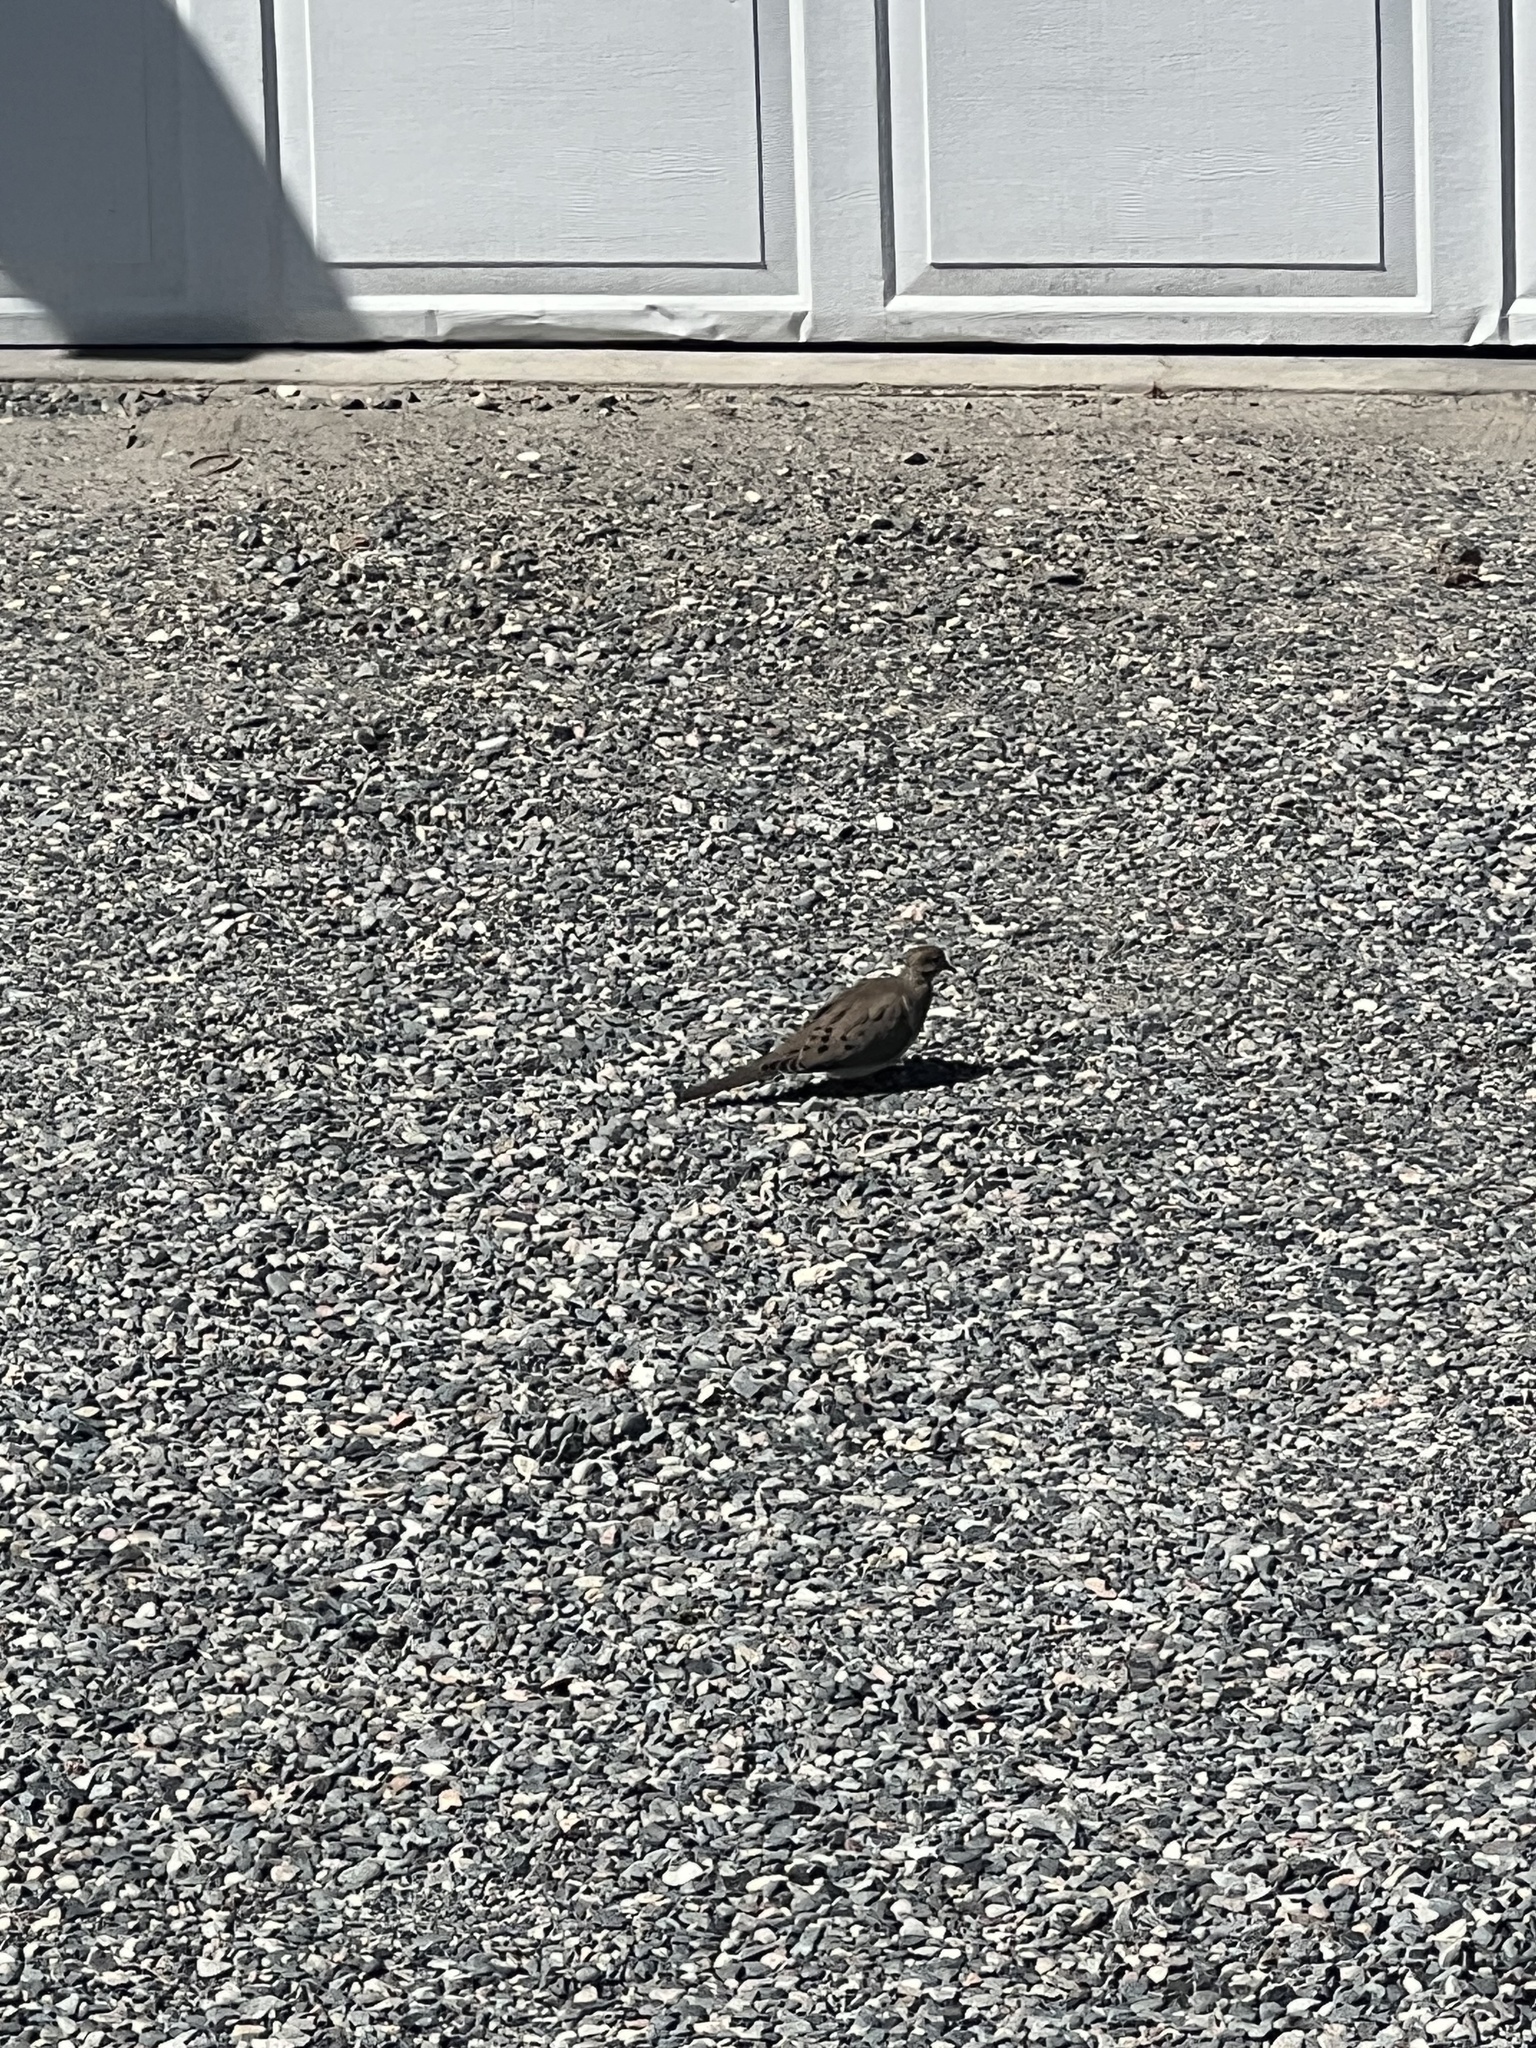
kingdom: Animalia
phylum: Chordata
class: Aves
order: Columbiformes
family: Columbidae
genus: Zenaida
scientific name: Zenaida macroura
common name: Mourning dove
